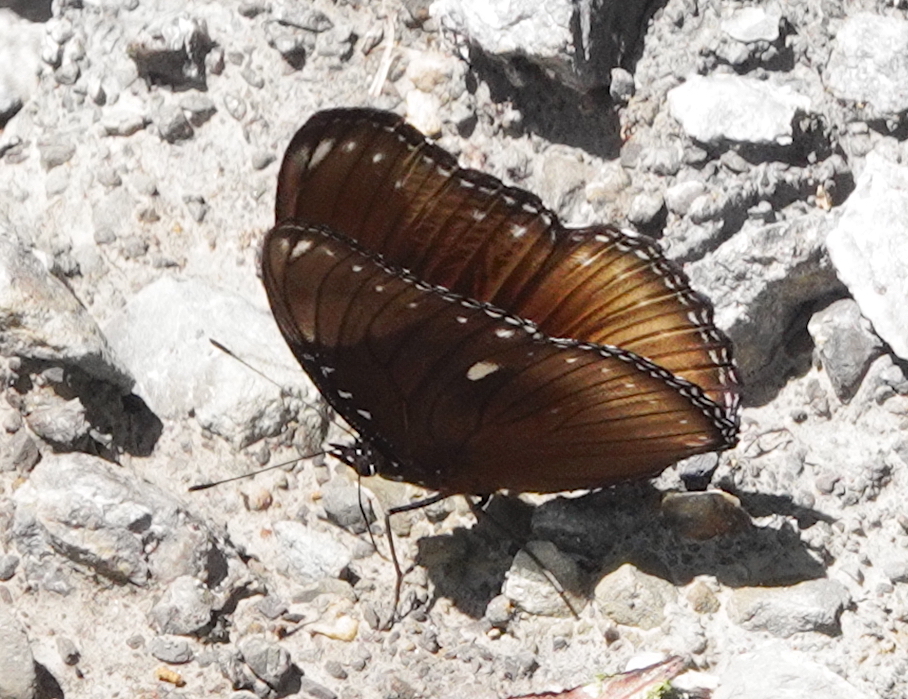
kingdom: Animalia
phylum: Arthropoda
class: Insecta
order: Lepidoptera
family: Nymphalidae
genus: Hypolimnas
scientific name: Hypolimnas antilope
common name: Spotted crow eggfly
